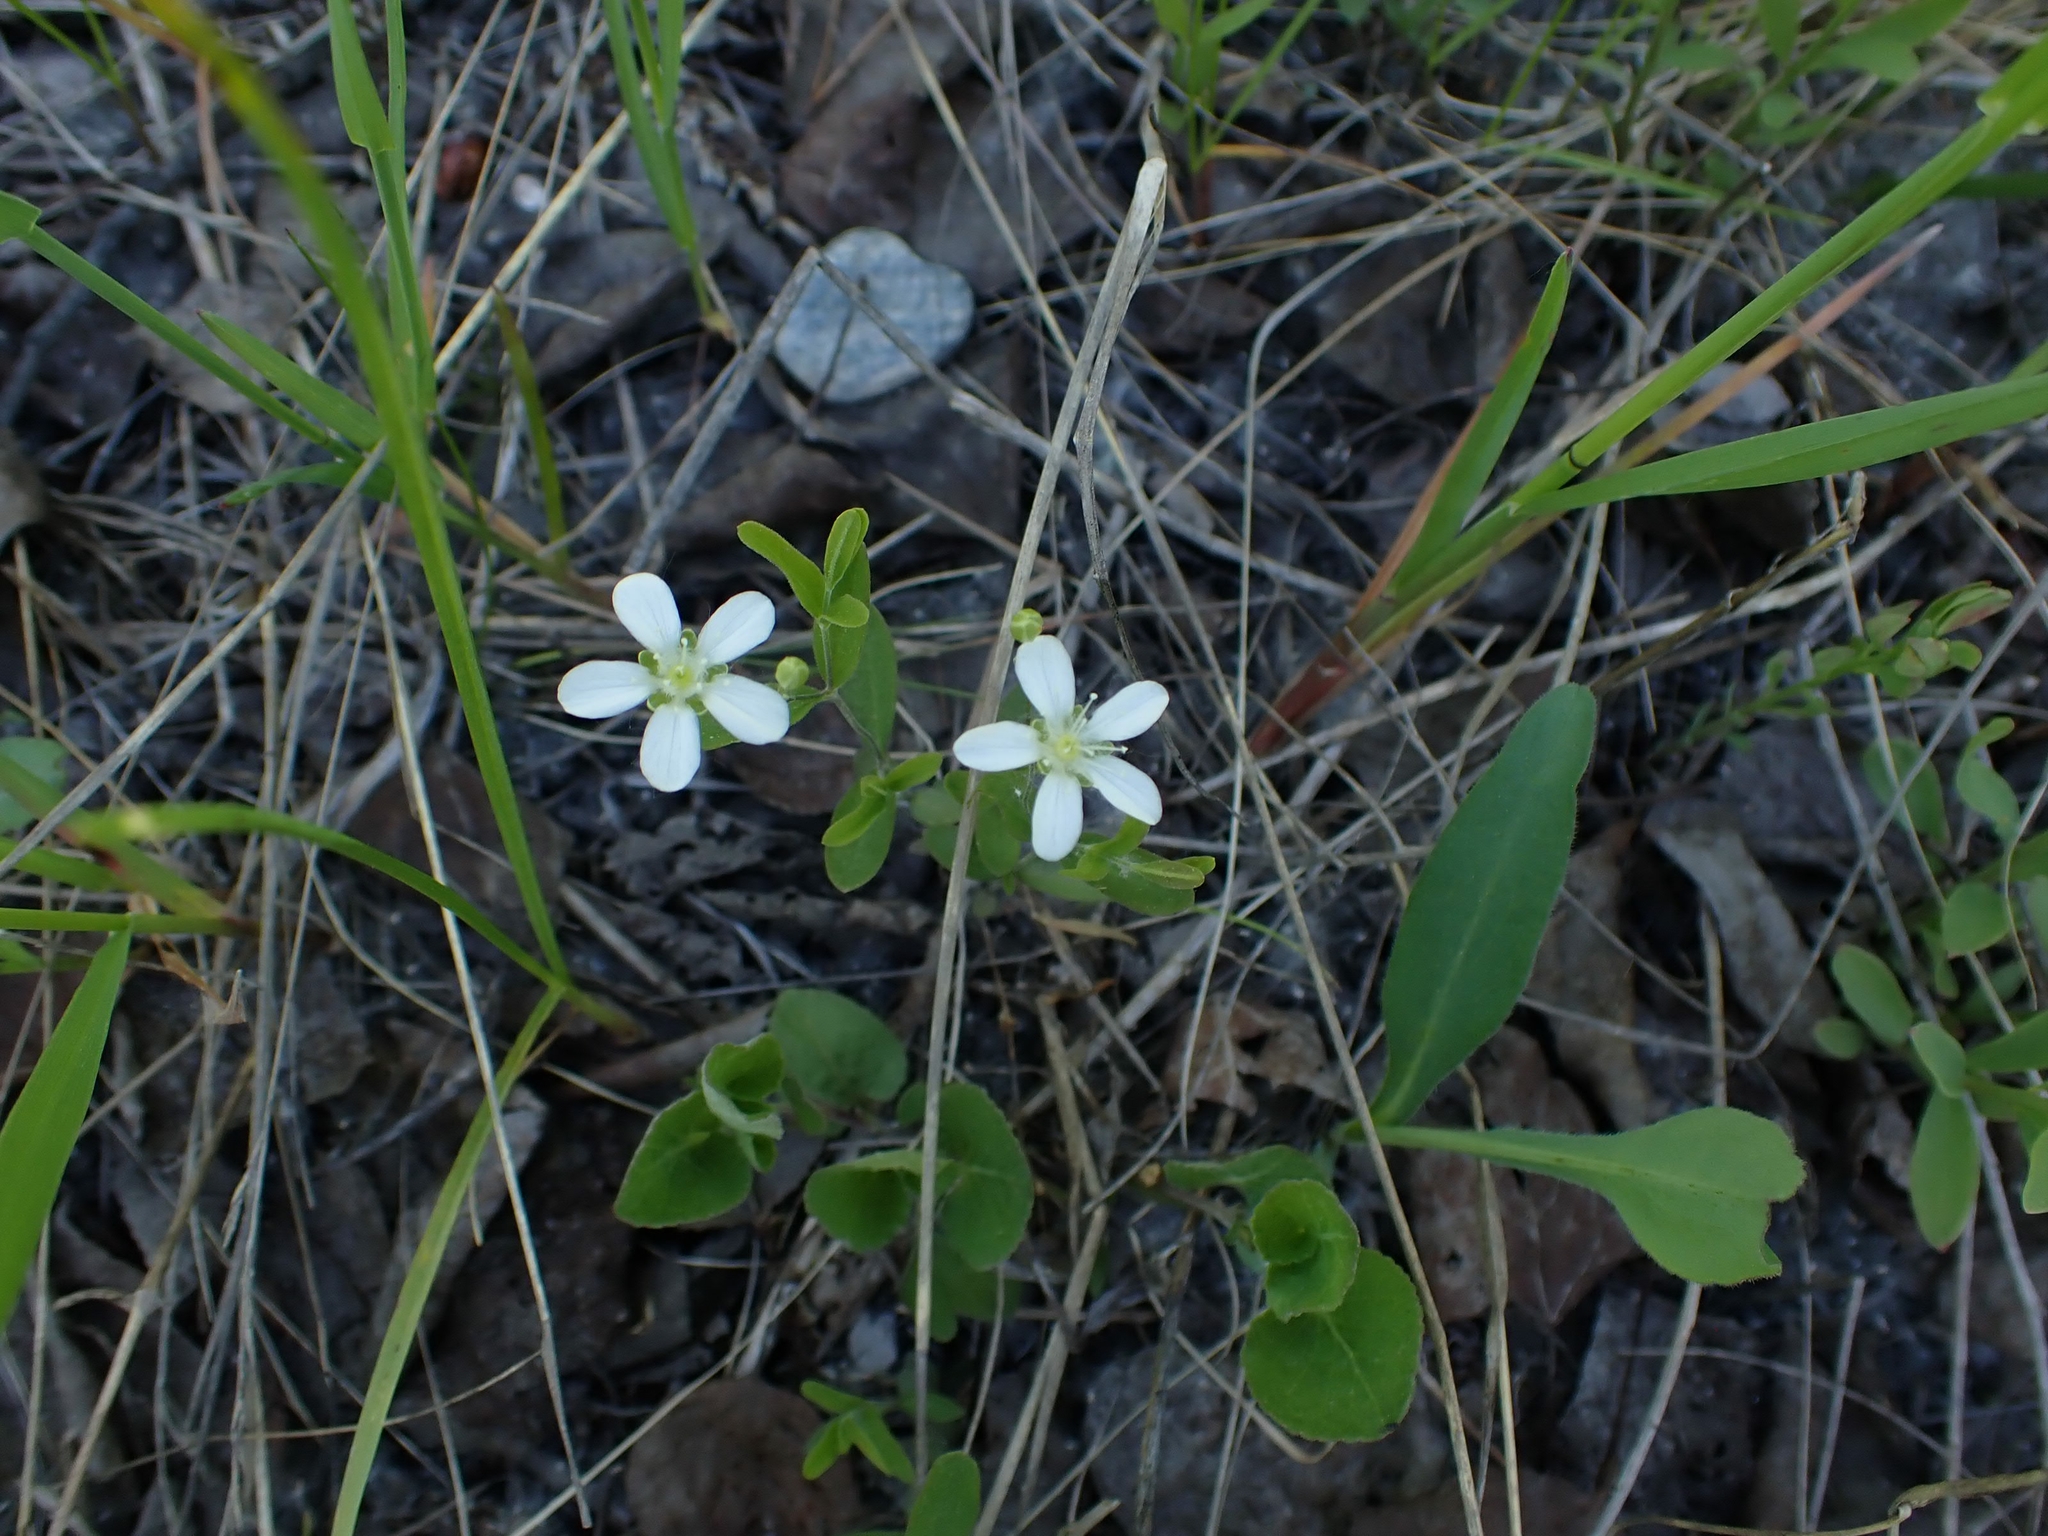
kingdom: Plantae
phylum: Tracheophyta
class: Magnoliopsida
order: Caryophyllales
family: Caryophyllaceae
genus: Moehringia
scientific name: Moehringia lateriflora
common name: Blunt-leaved sandwort
